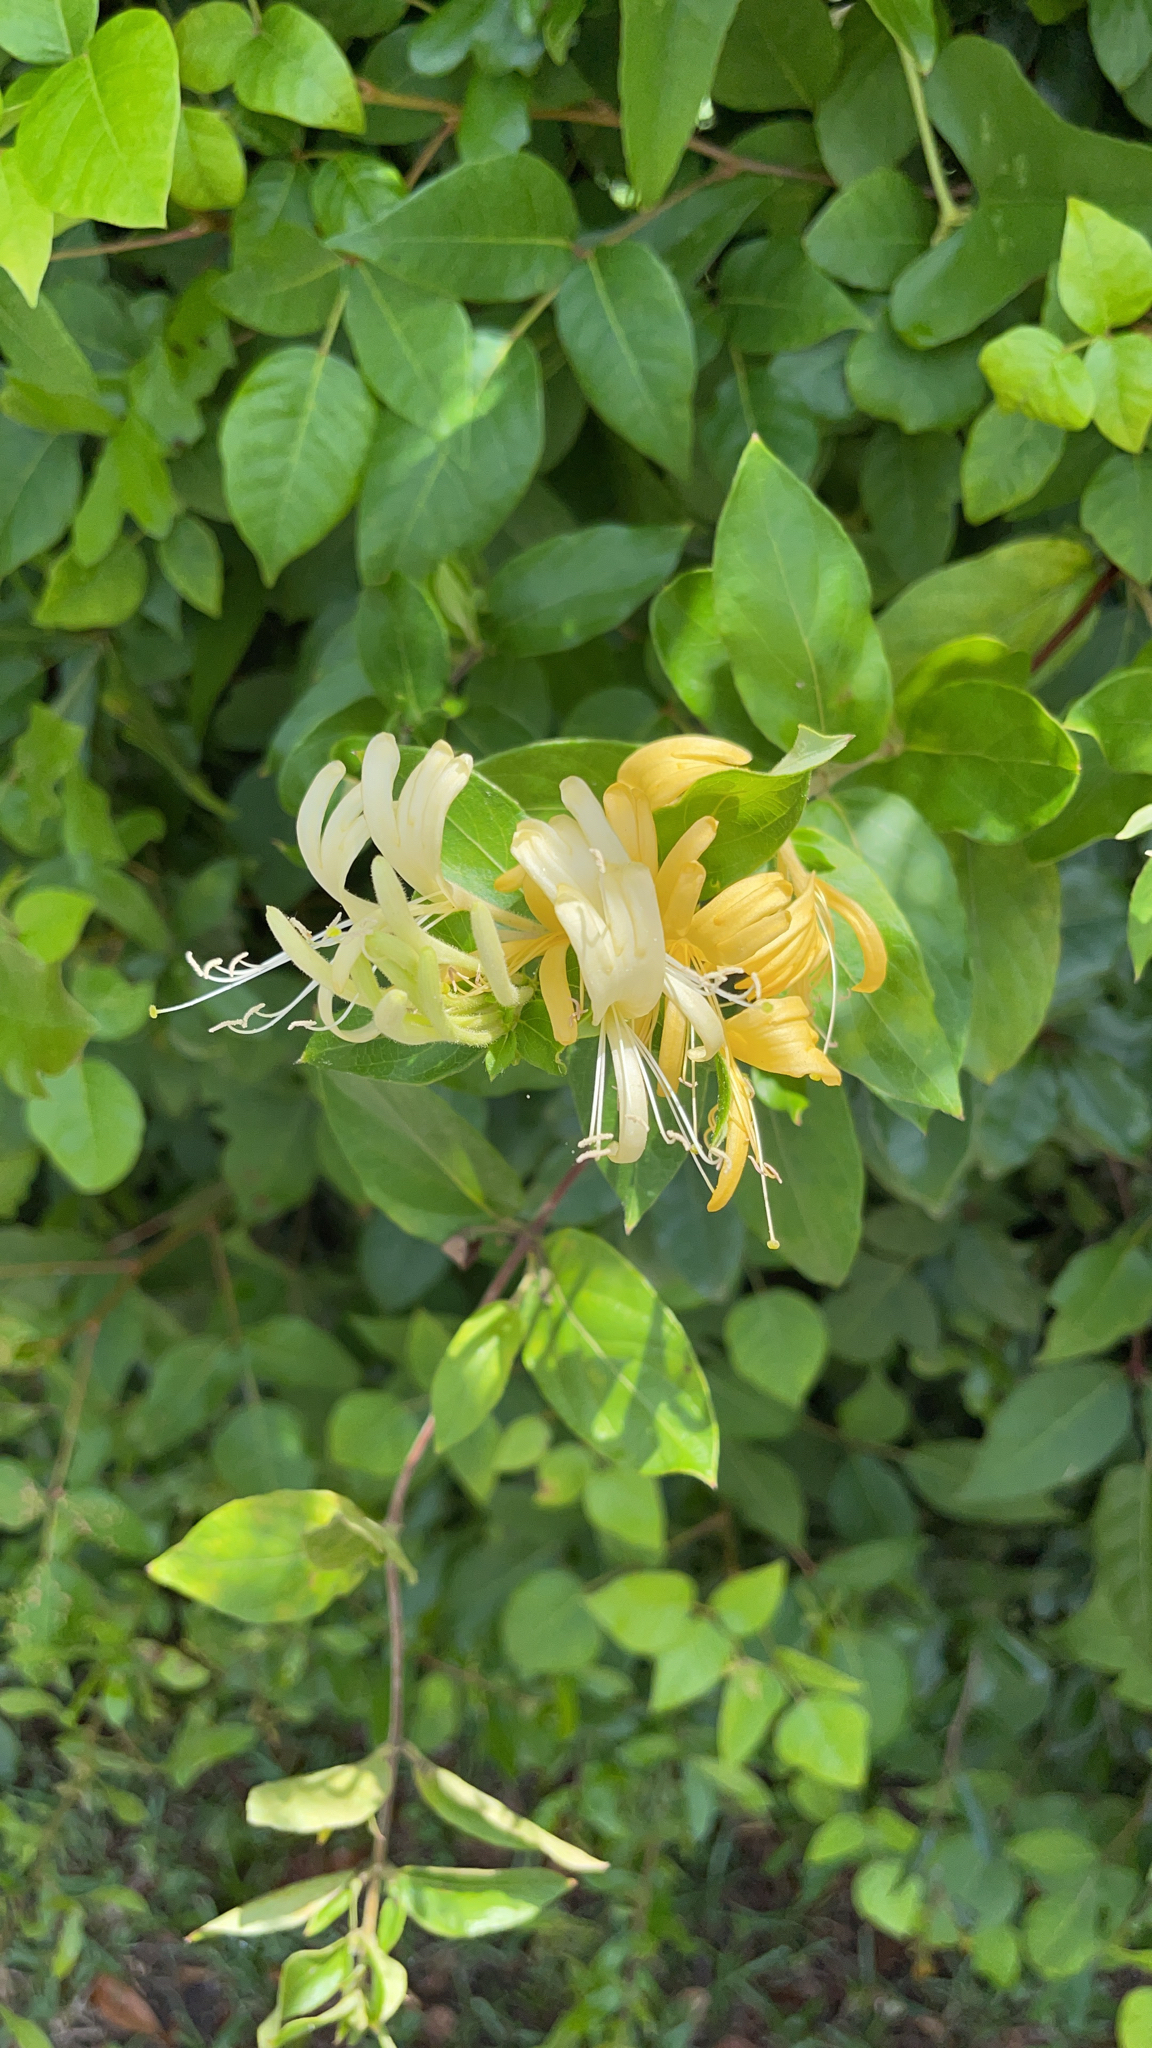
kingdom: Plantae
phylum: Tracheophyta
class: Magnoliopsida
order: Dipsacales
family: Caprifoliaceae
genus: Lonicera
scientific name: Lonicera japonica
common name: Japanese honeysuckle
